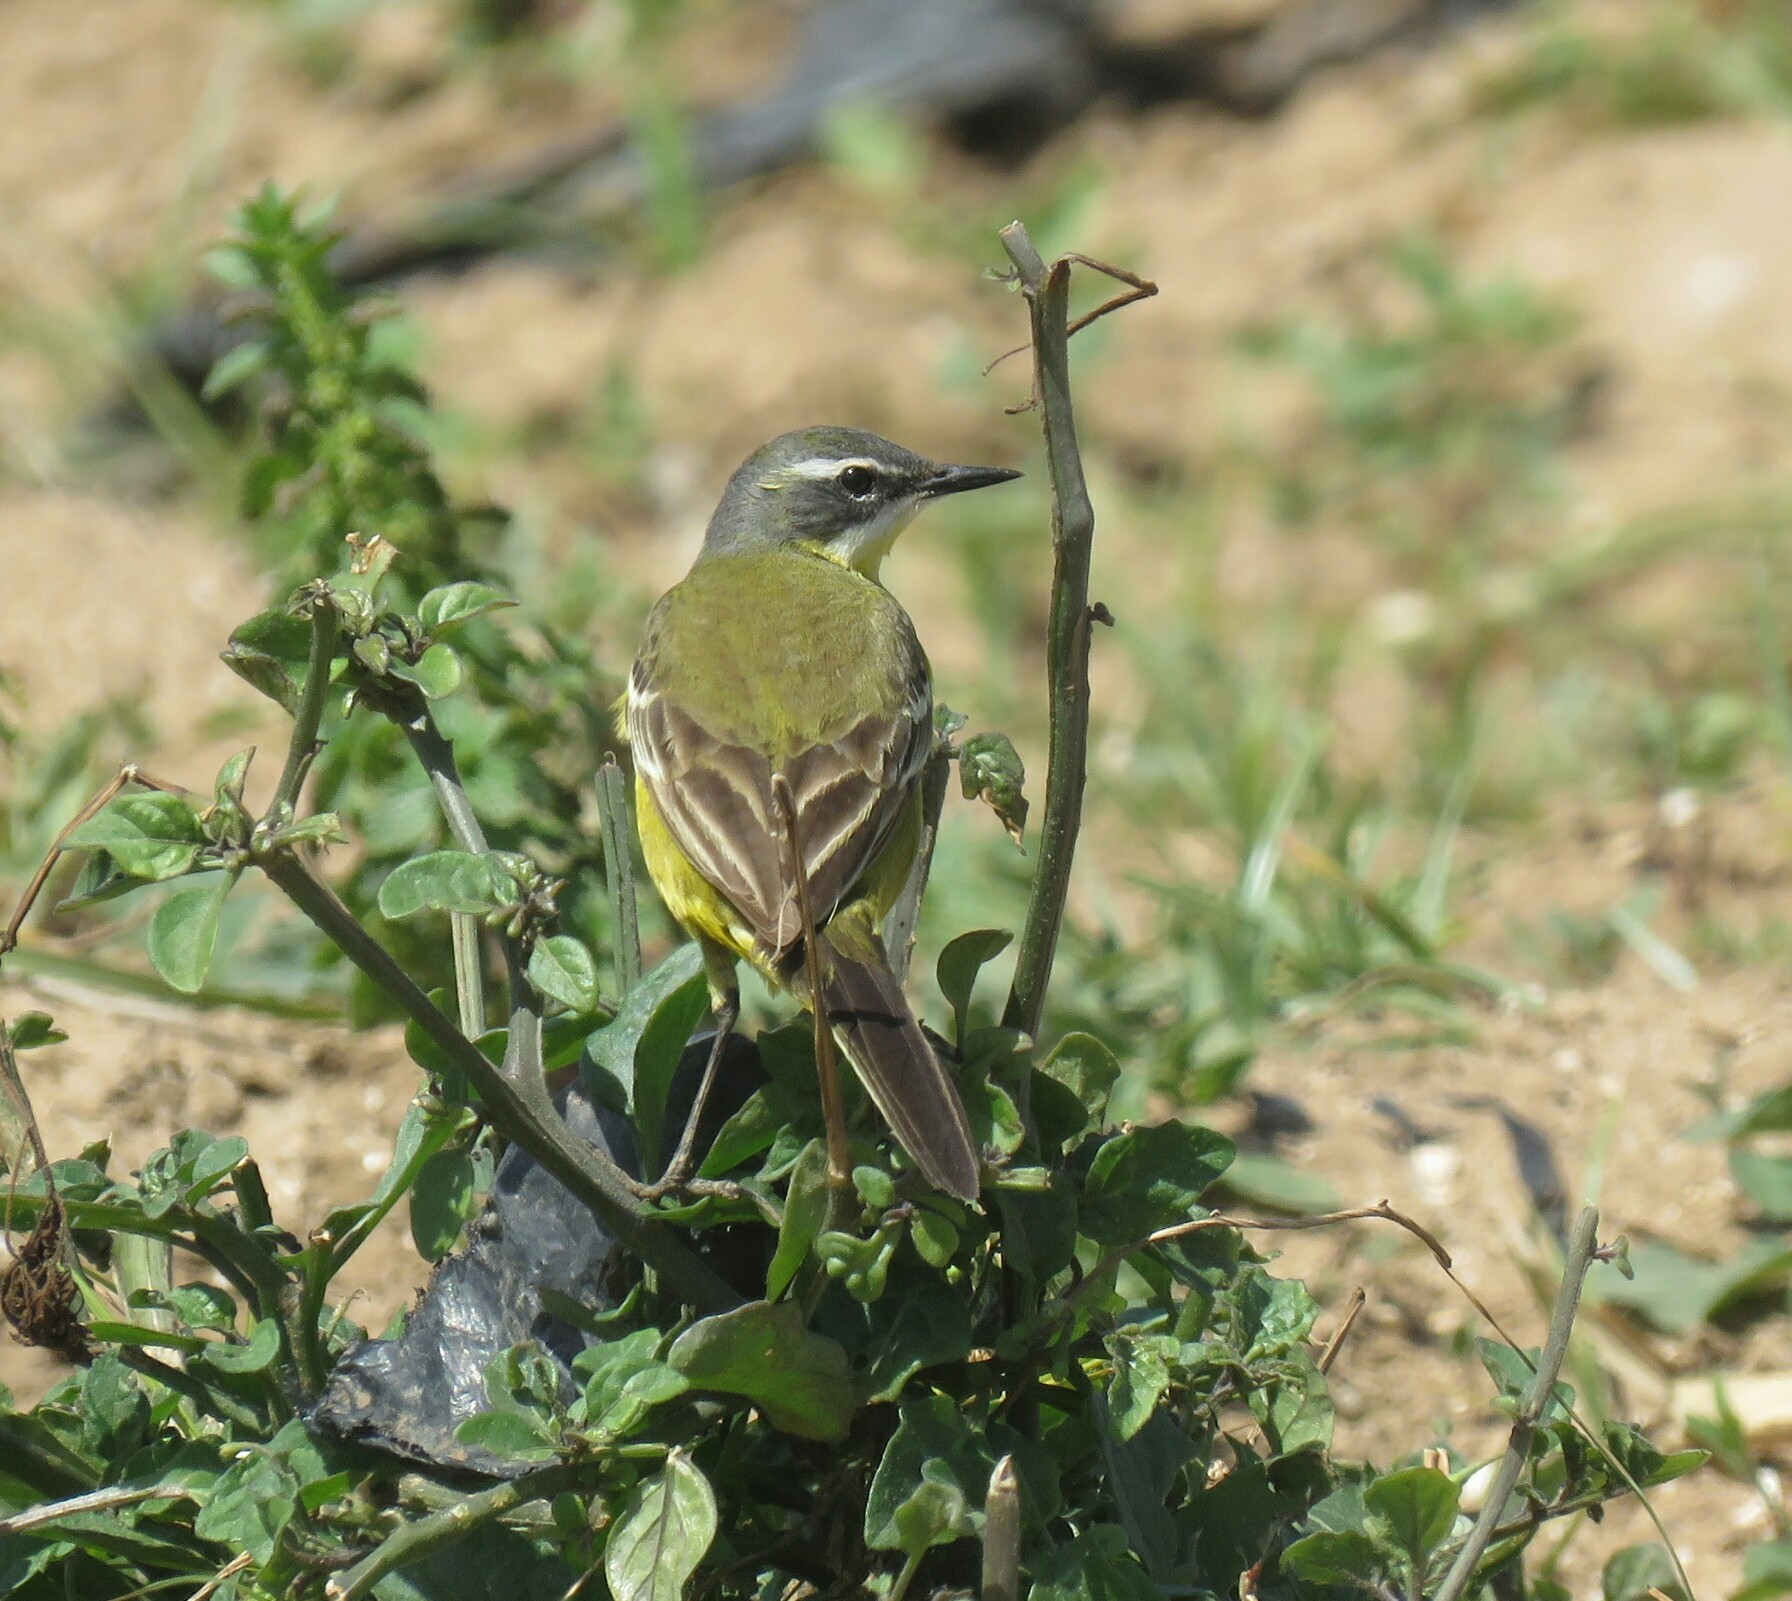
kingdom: Animalia
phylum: Chordata
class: Aves
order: Passeriformes
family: Motacillidae
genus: Motacilla
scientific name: Motacilla flava
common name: Western yellow wagtail
